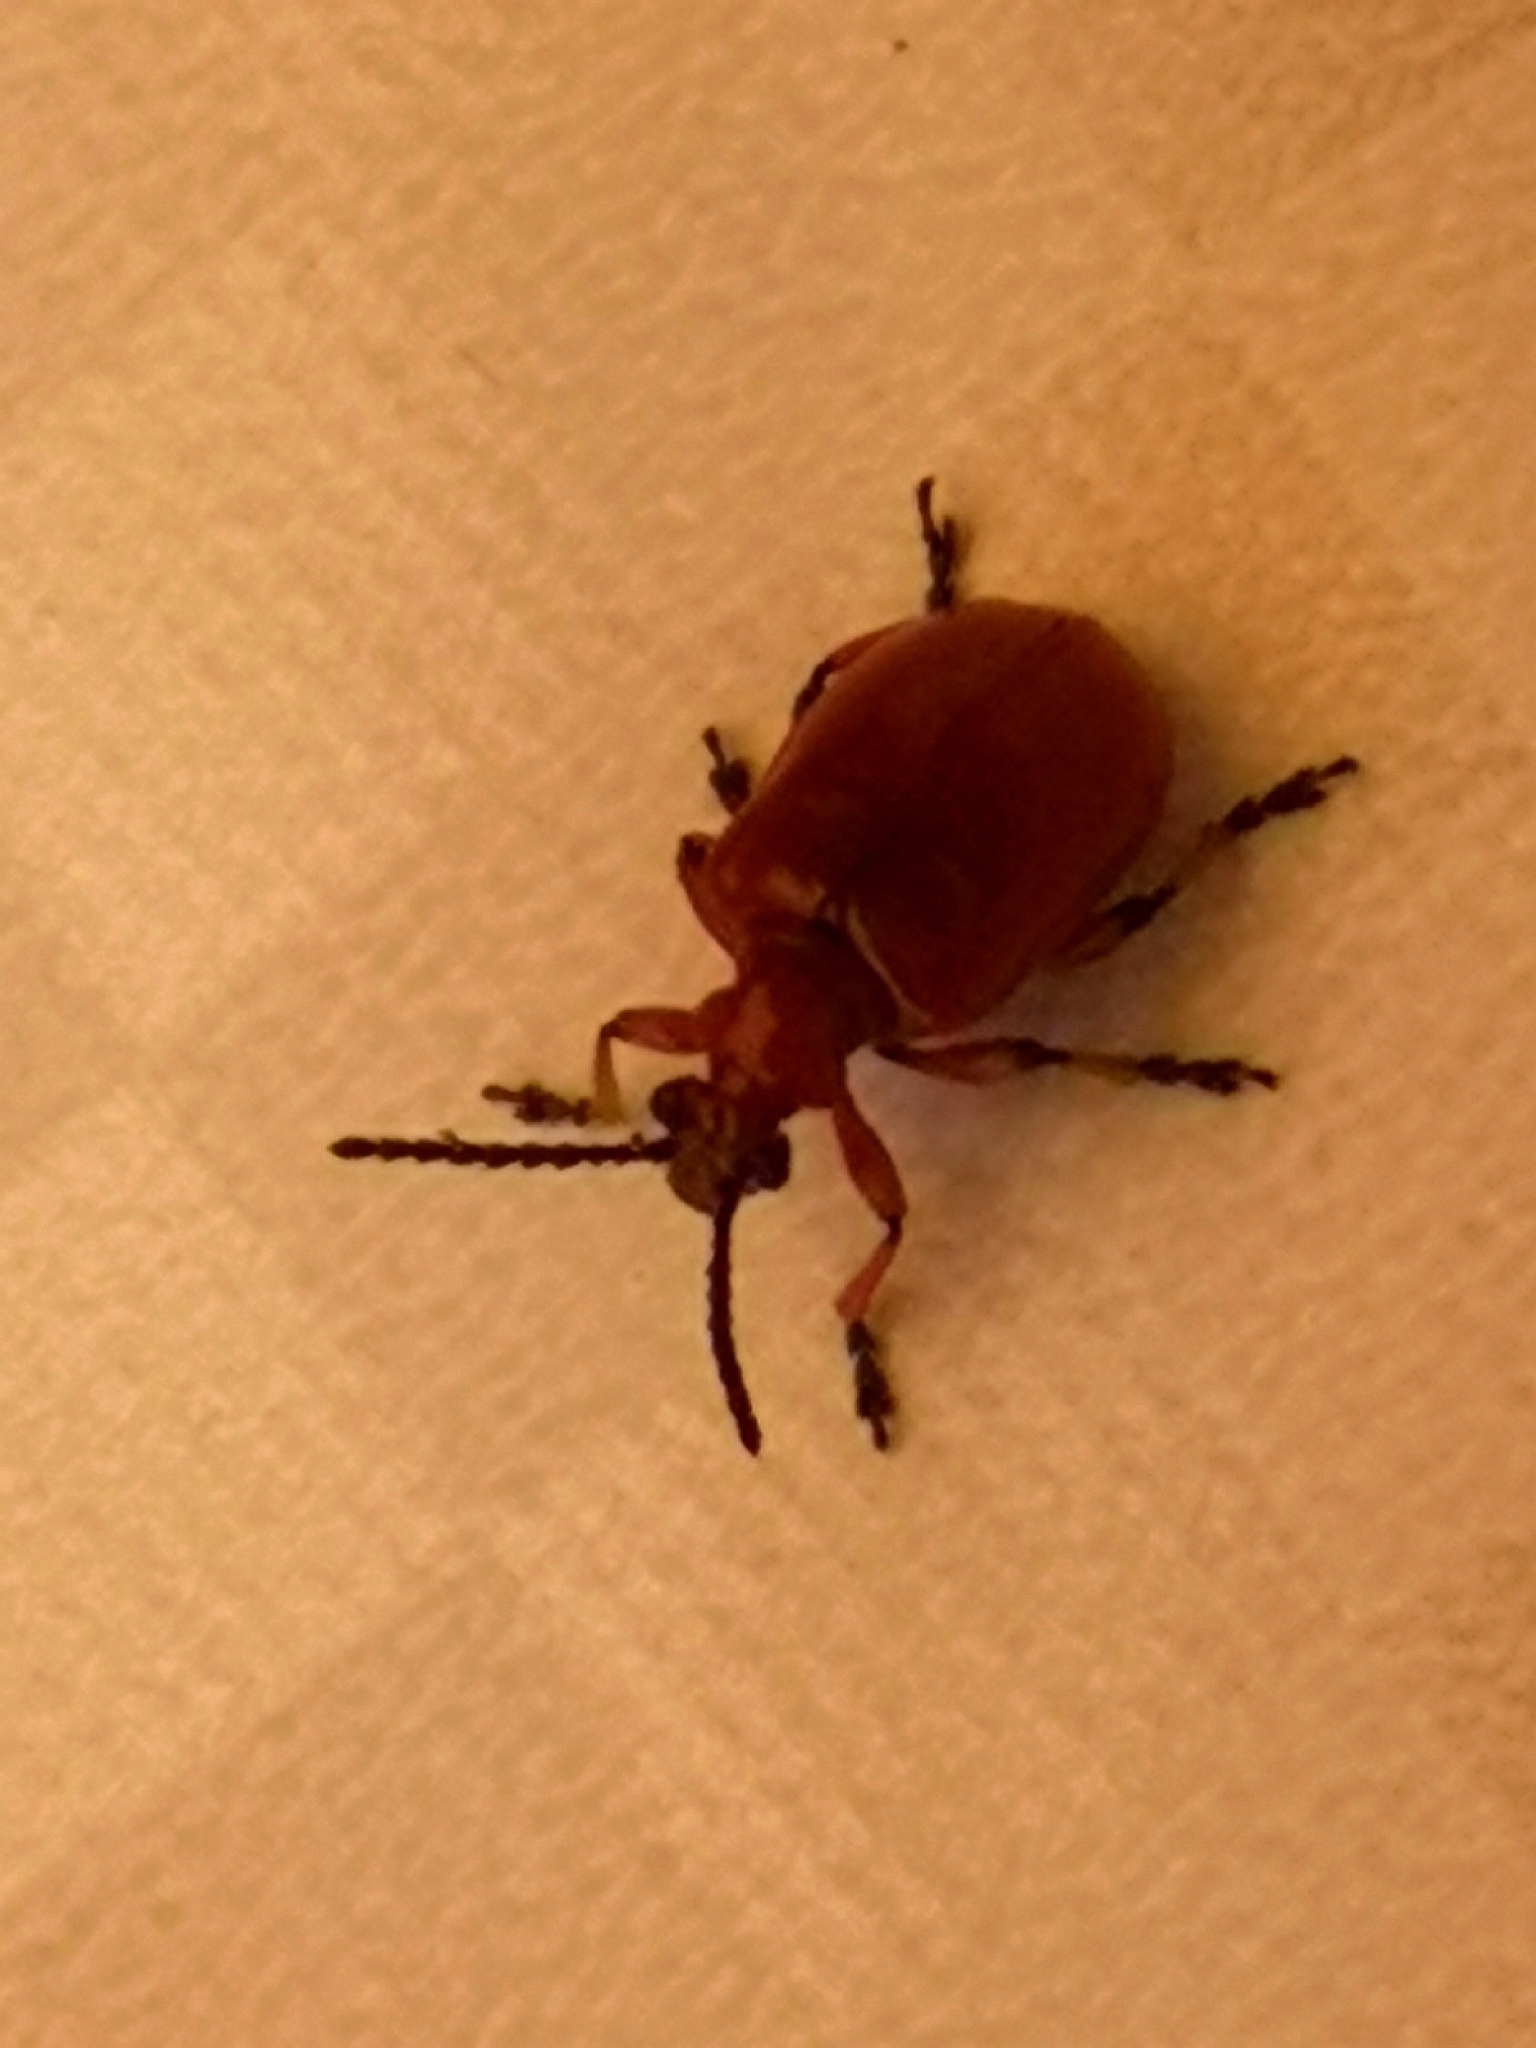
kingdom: Animalia
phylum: Arthropoda
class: Insecta
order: Coleoptera
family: Chrysomelidae
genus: Lilioceris
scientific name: Lilioceris merdigera
